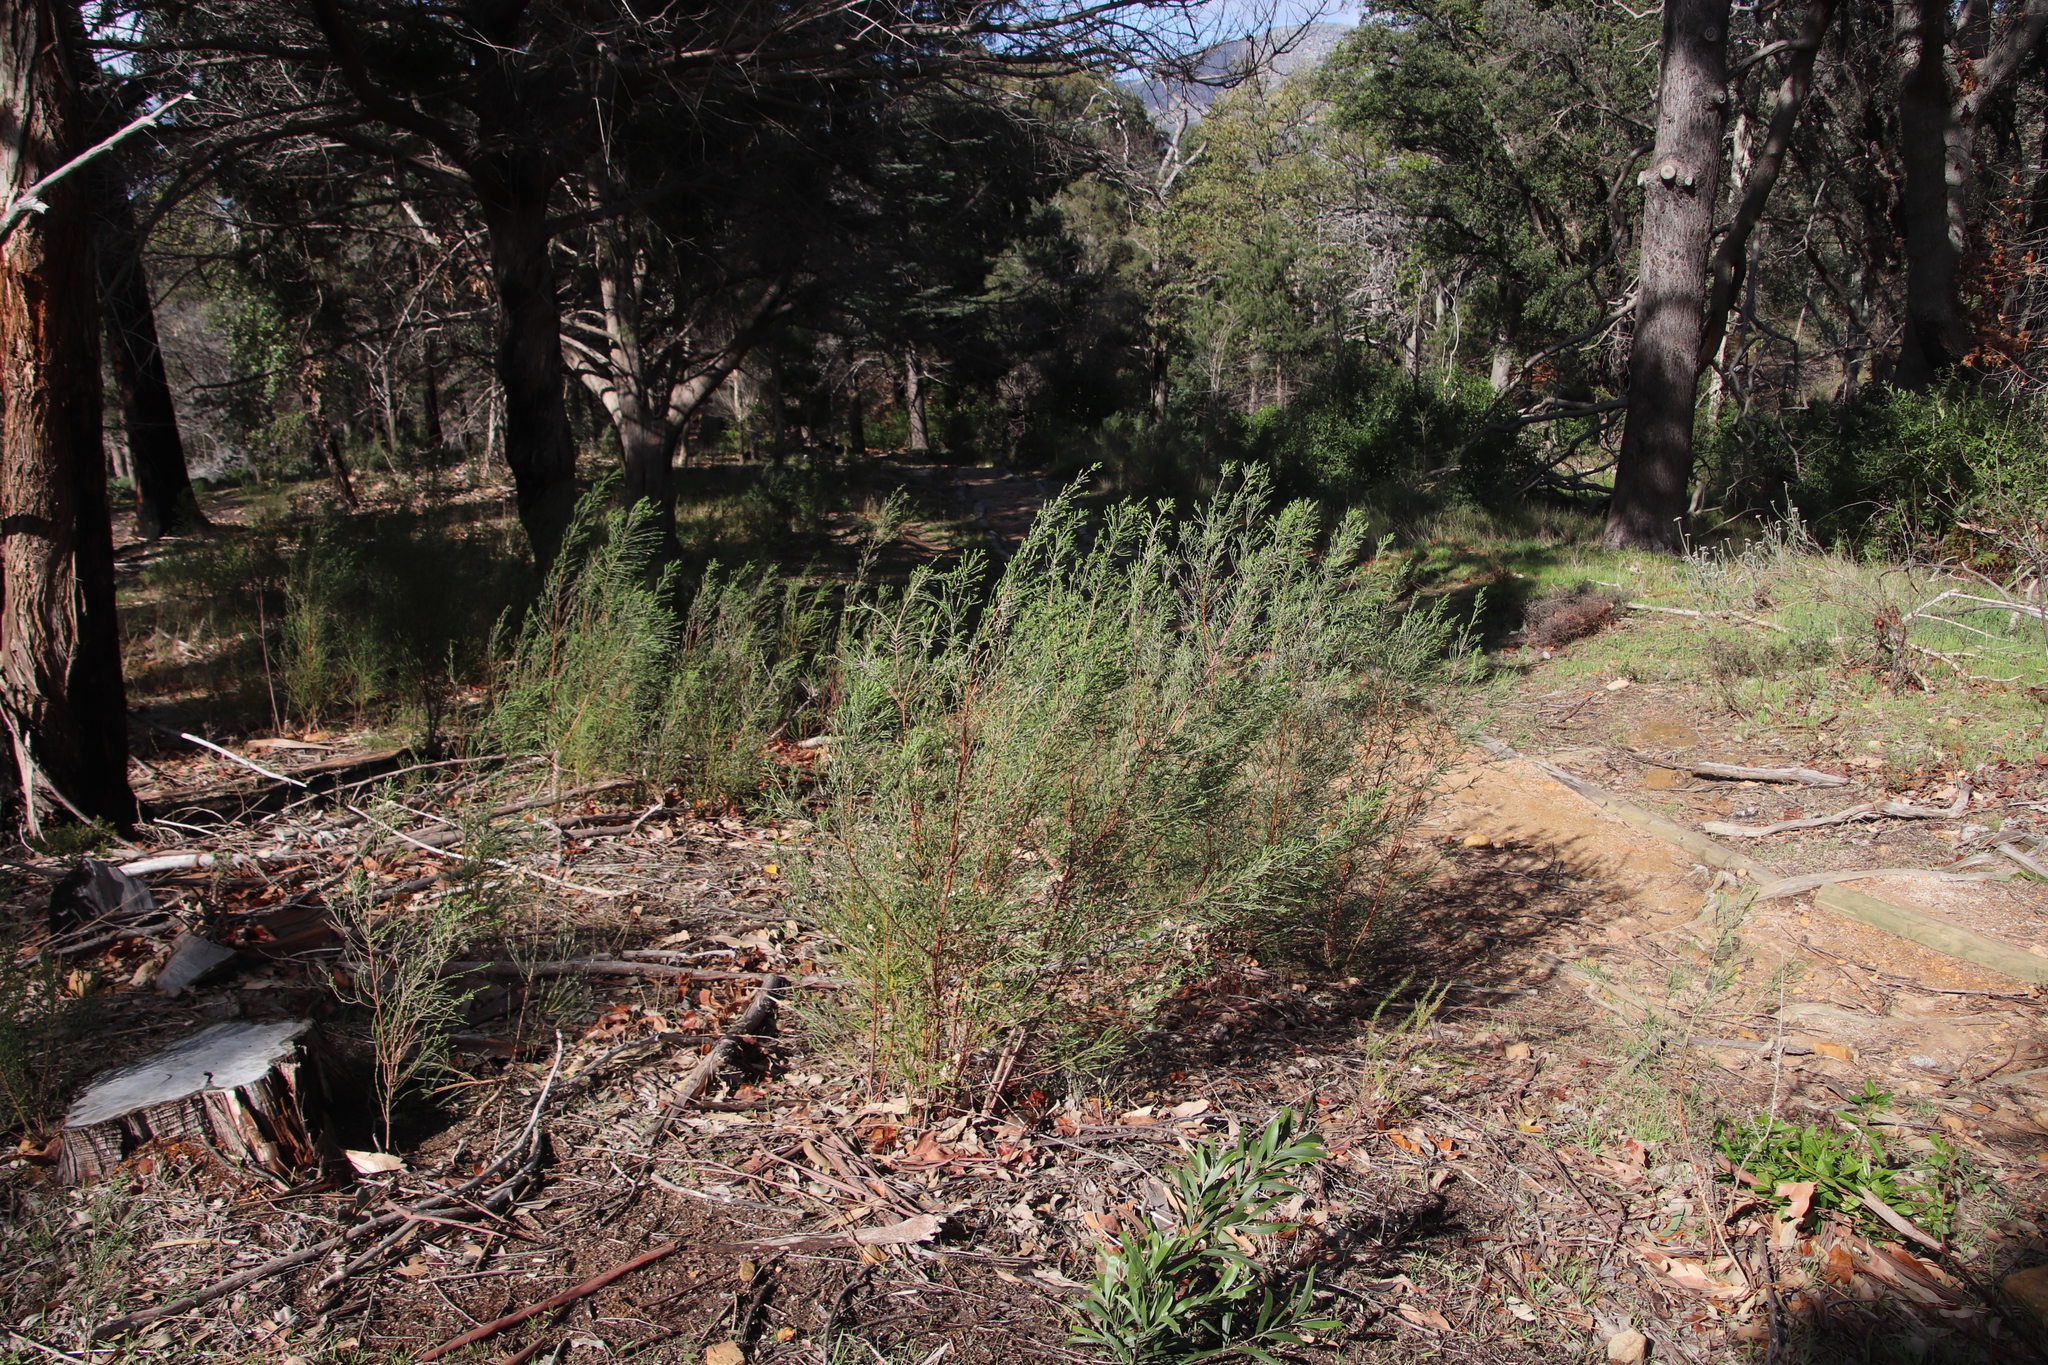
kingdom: Plantae
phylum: Tracheophyta
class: Magnoliopsida
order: Malvales
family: Thymelaeaceae
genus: Passerina
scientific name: Passerina corymbosa
